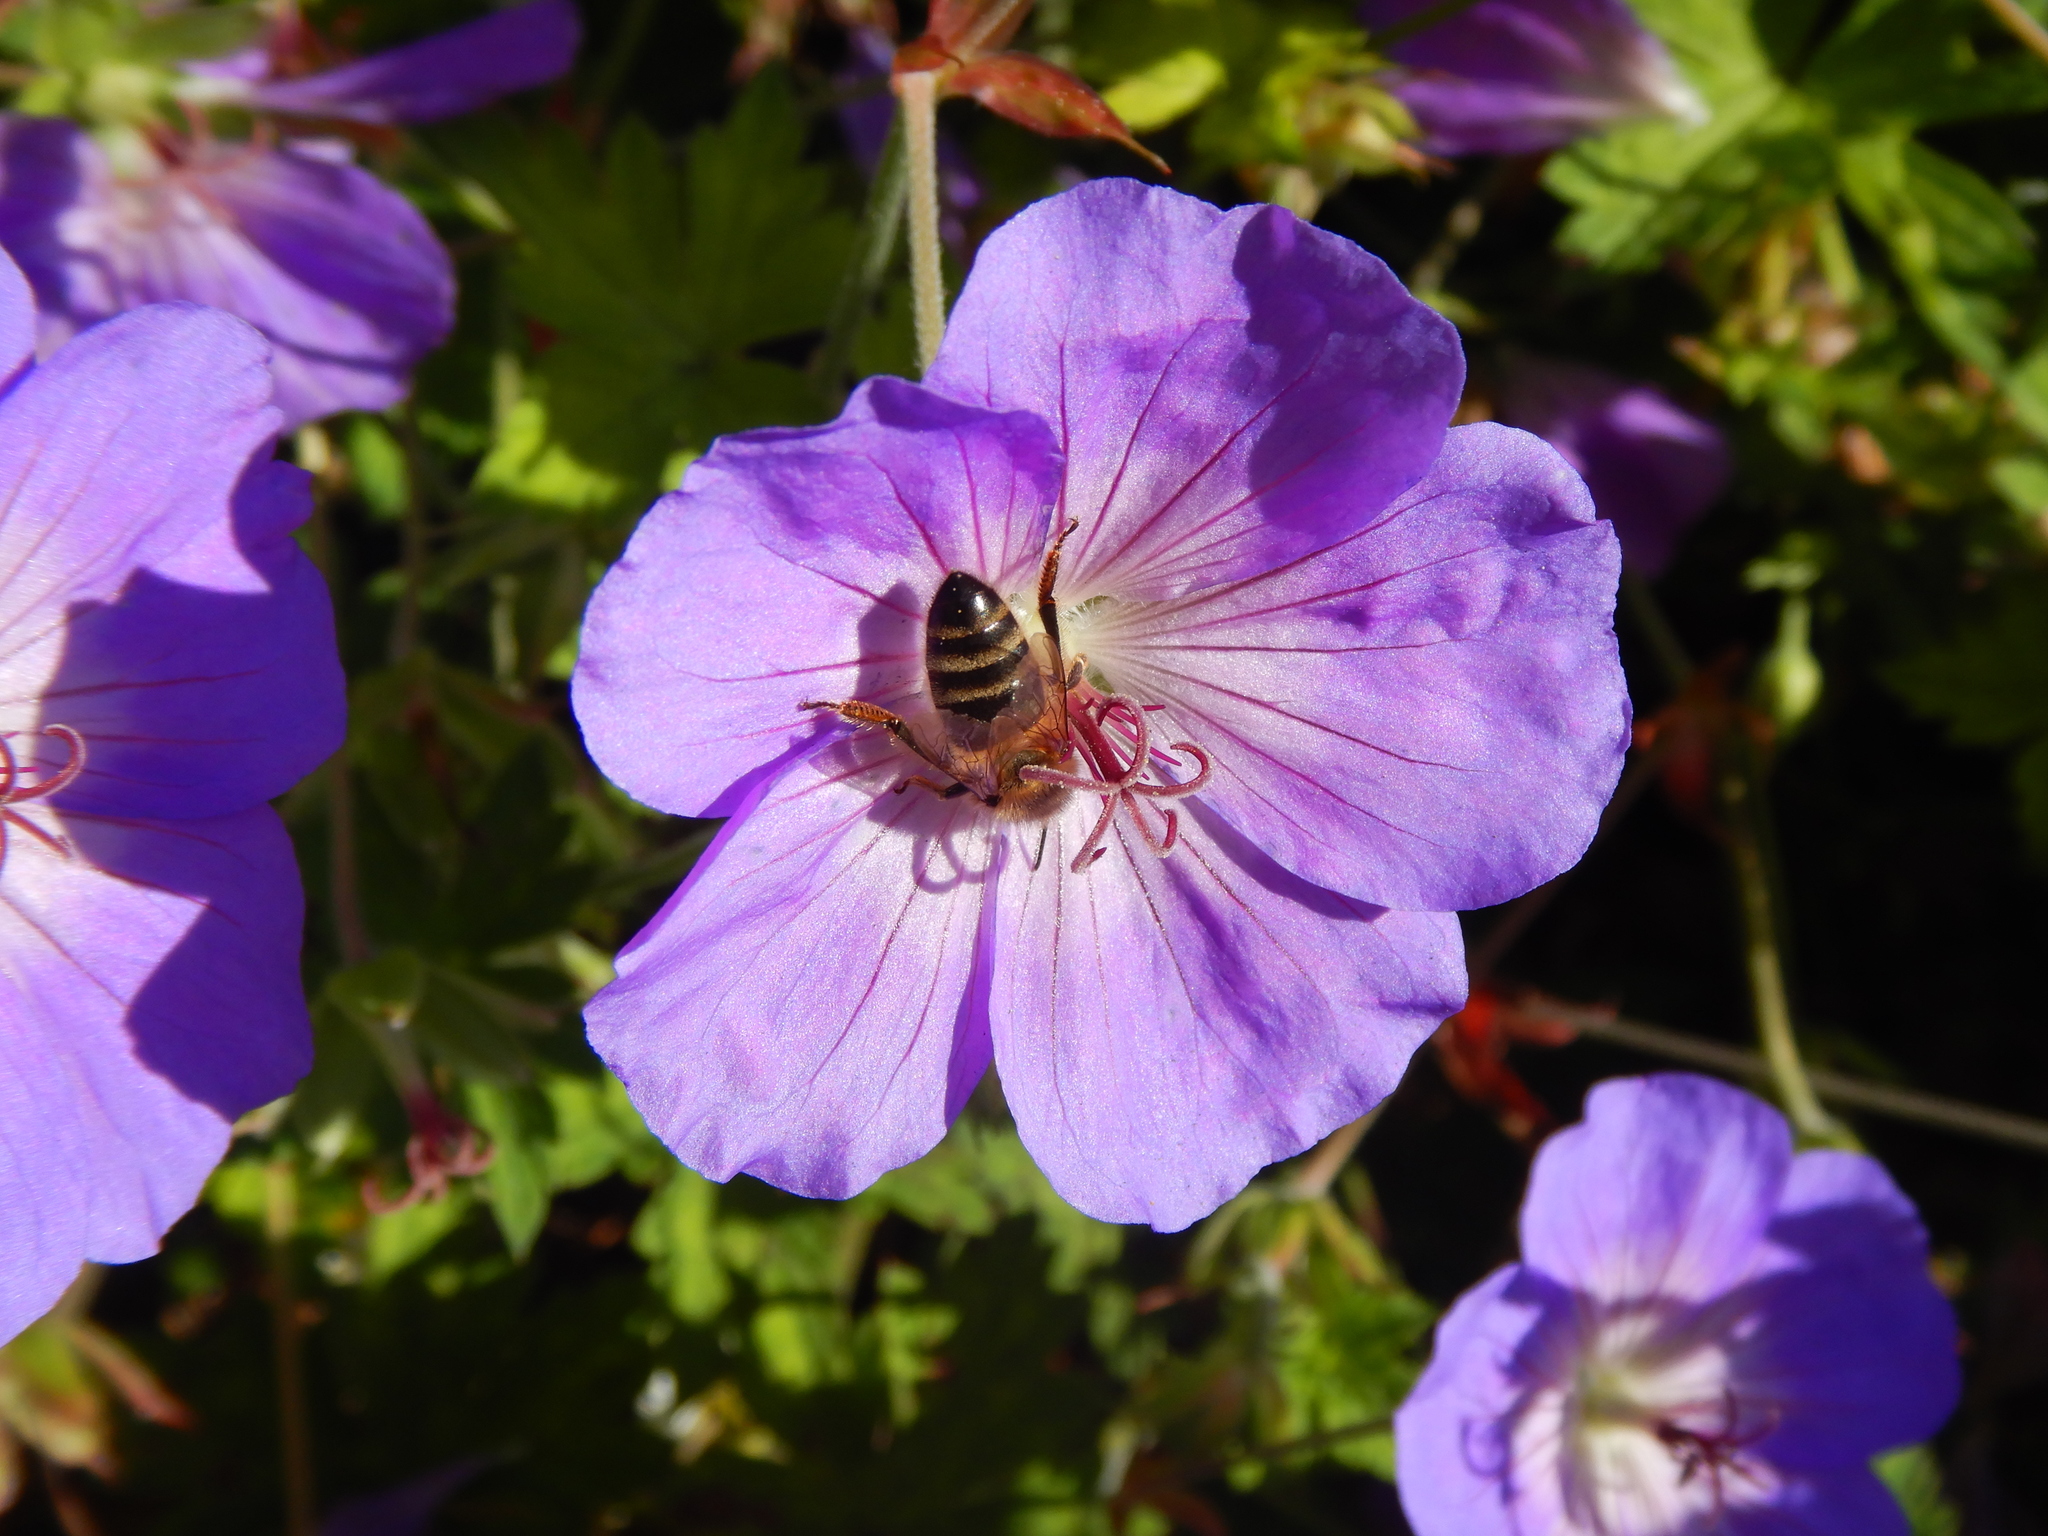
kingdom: Animalia
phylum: Arthropoda
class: Insecta
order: Hymenoptera
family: Apidae
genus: Apis
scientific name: Apis mellifera
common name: Honey bee
